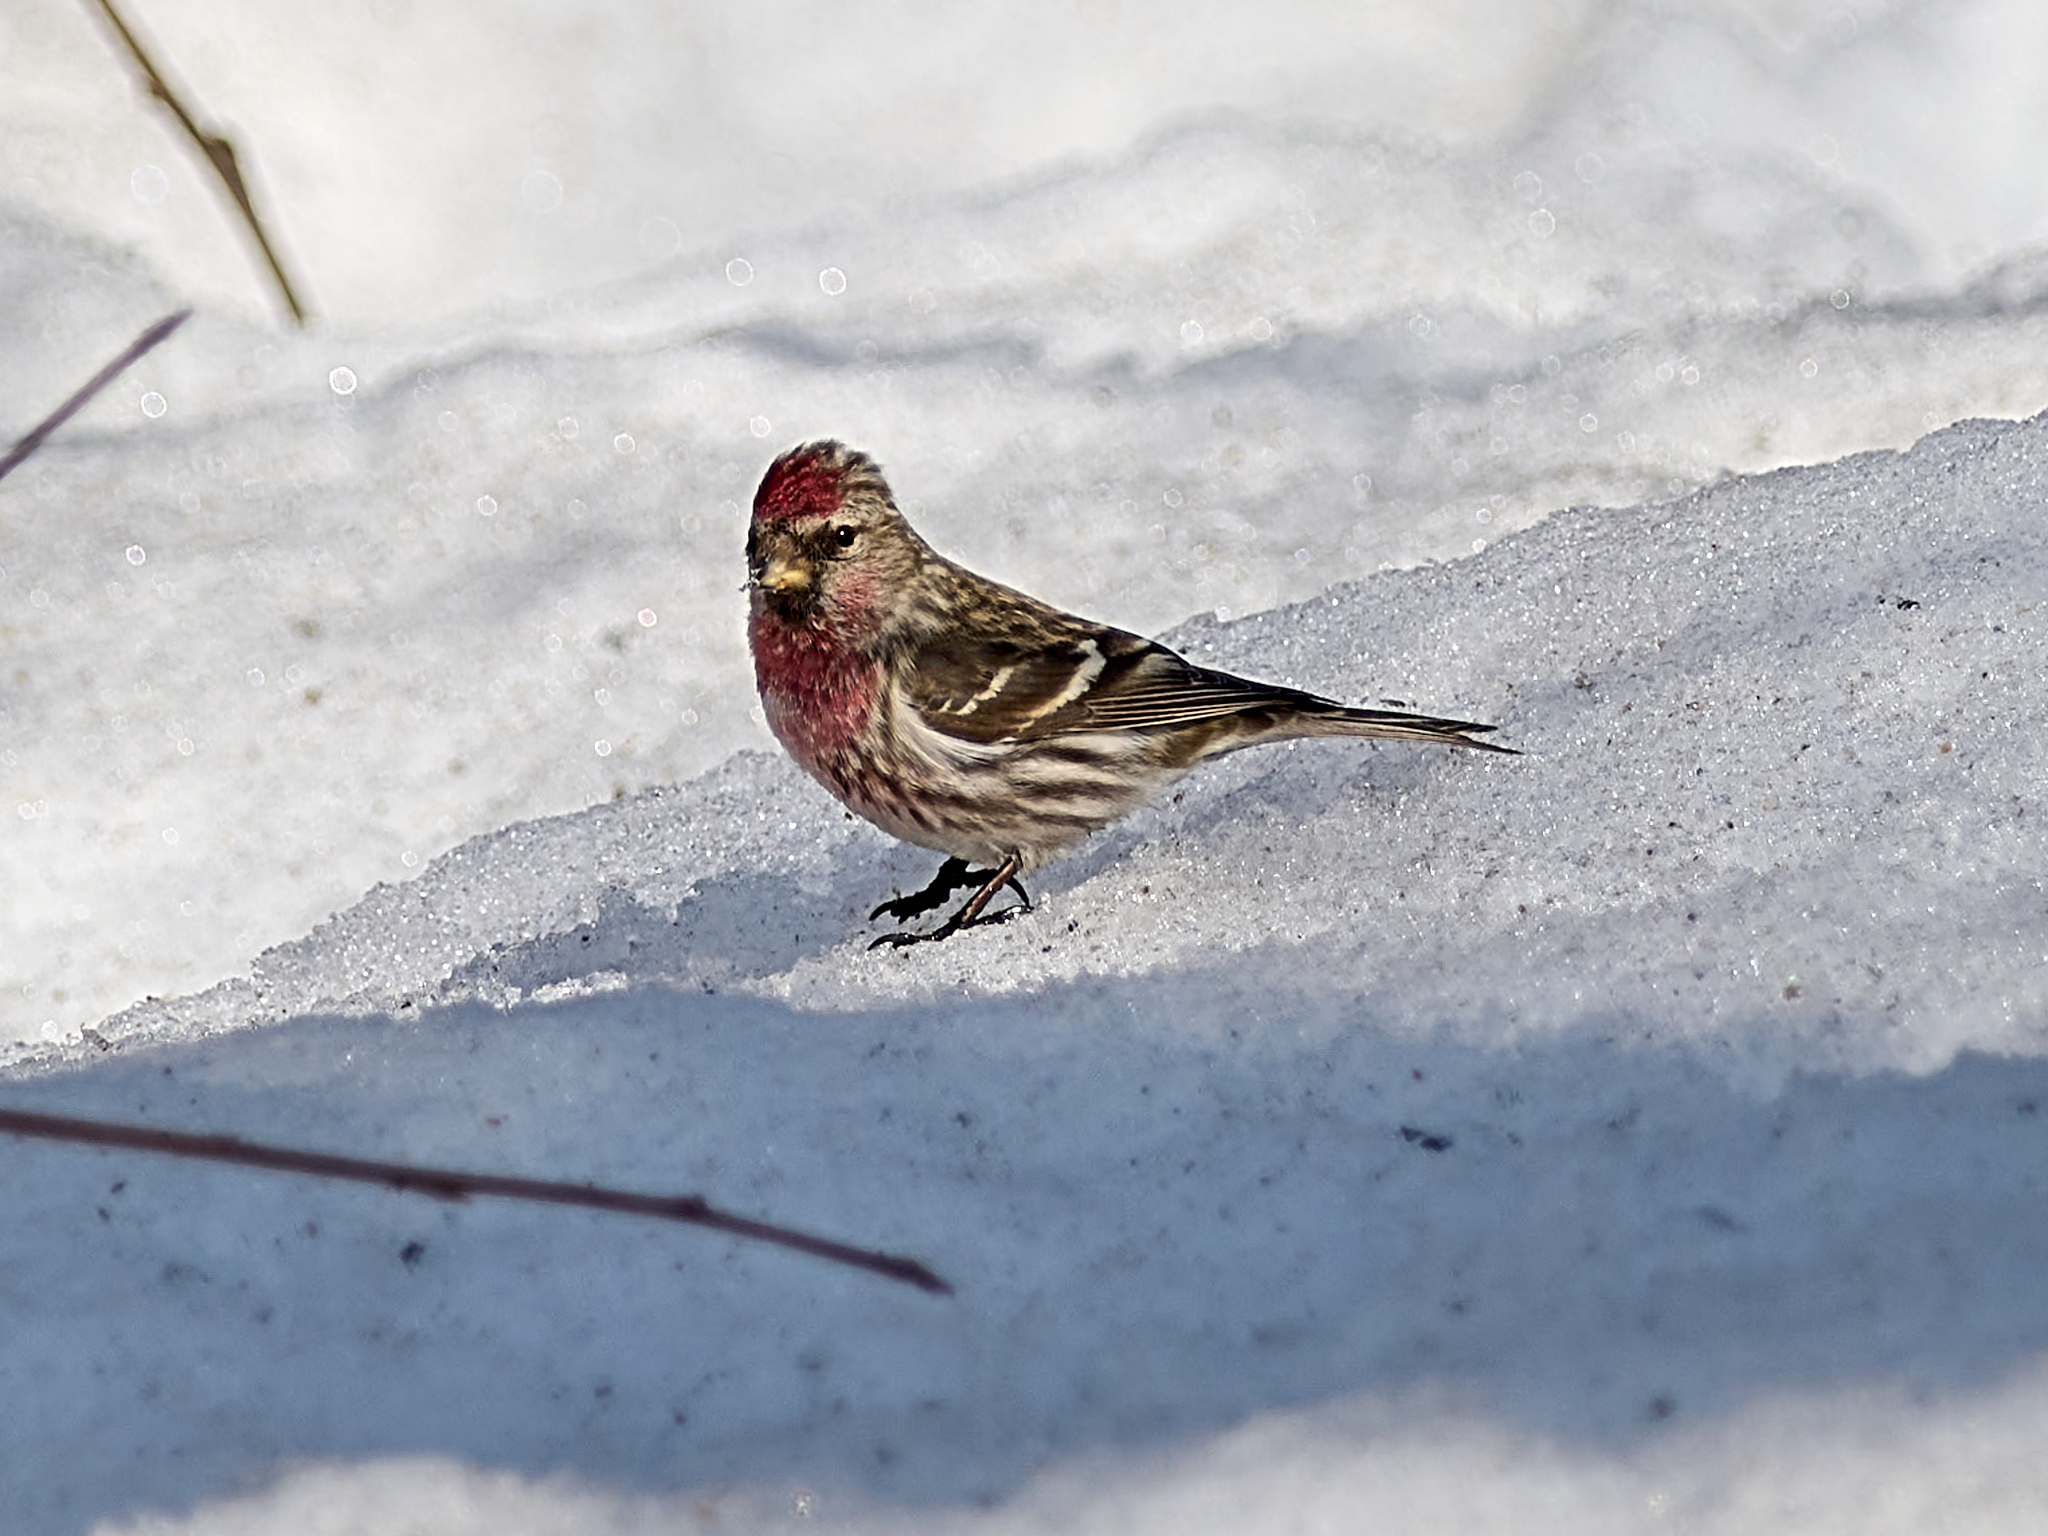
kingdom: Animalia
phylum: Chordata
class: Aves
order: Passeriformes
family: Fringillidae
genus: Acanthis
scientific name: Acanthis flammea
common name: Common redpoll
